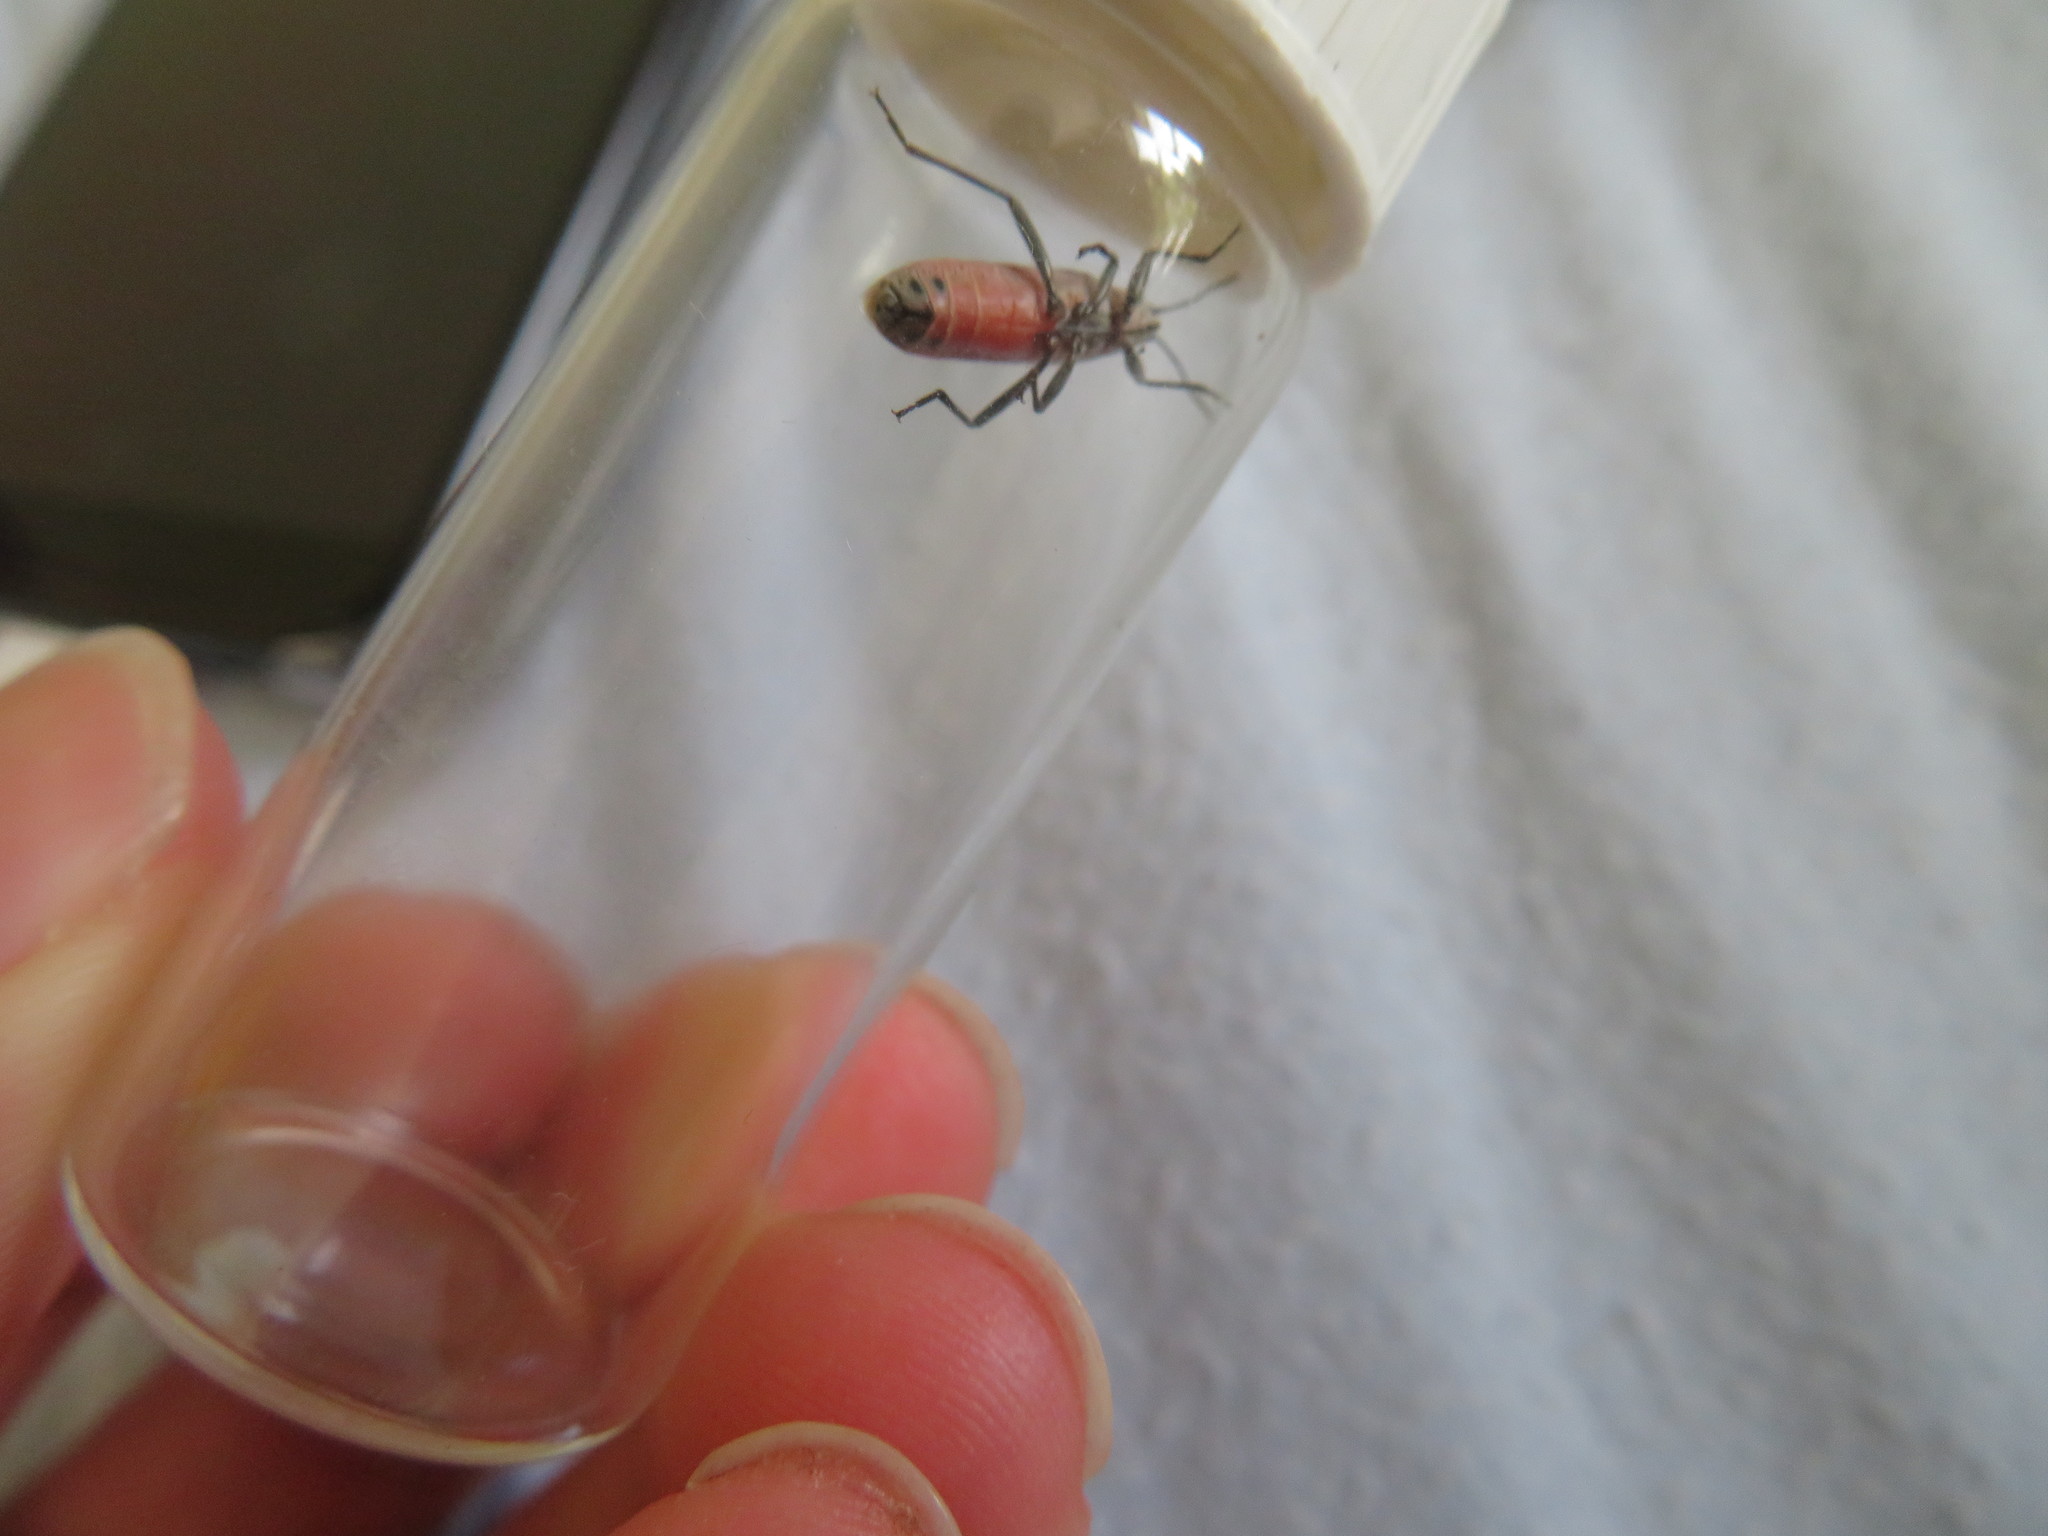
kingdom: Animalia
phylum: Arthropoda
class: Insecta
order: Hemiptera
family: Lygaeidae
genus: Arocatus
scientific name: Arocatus rusticus
